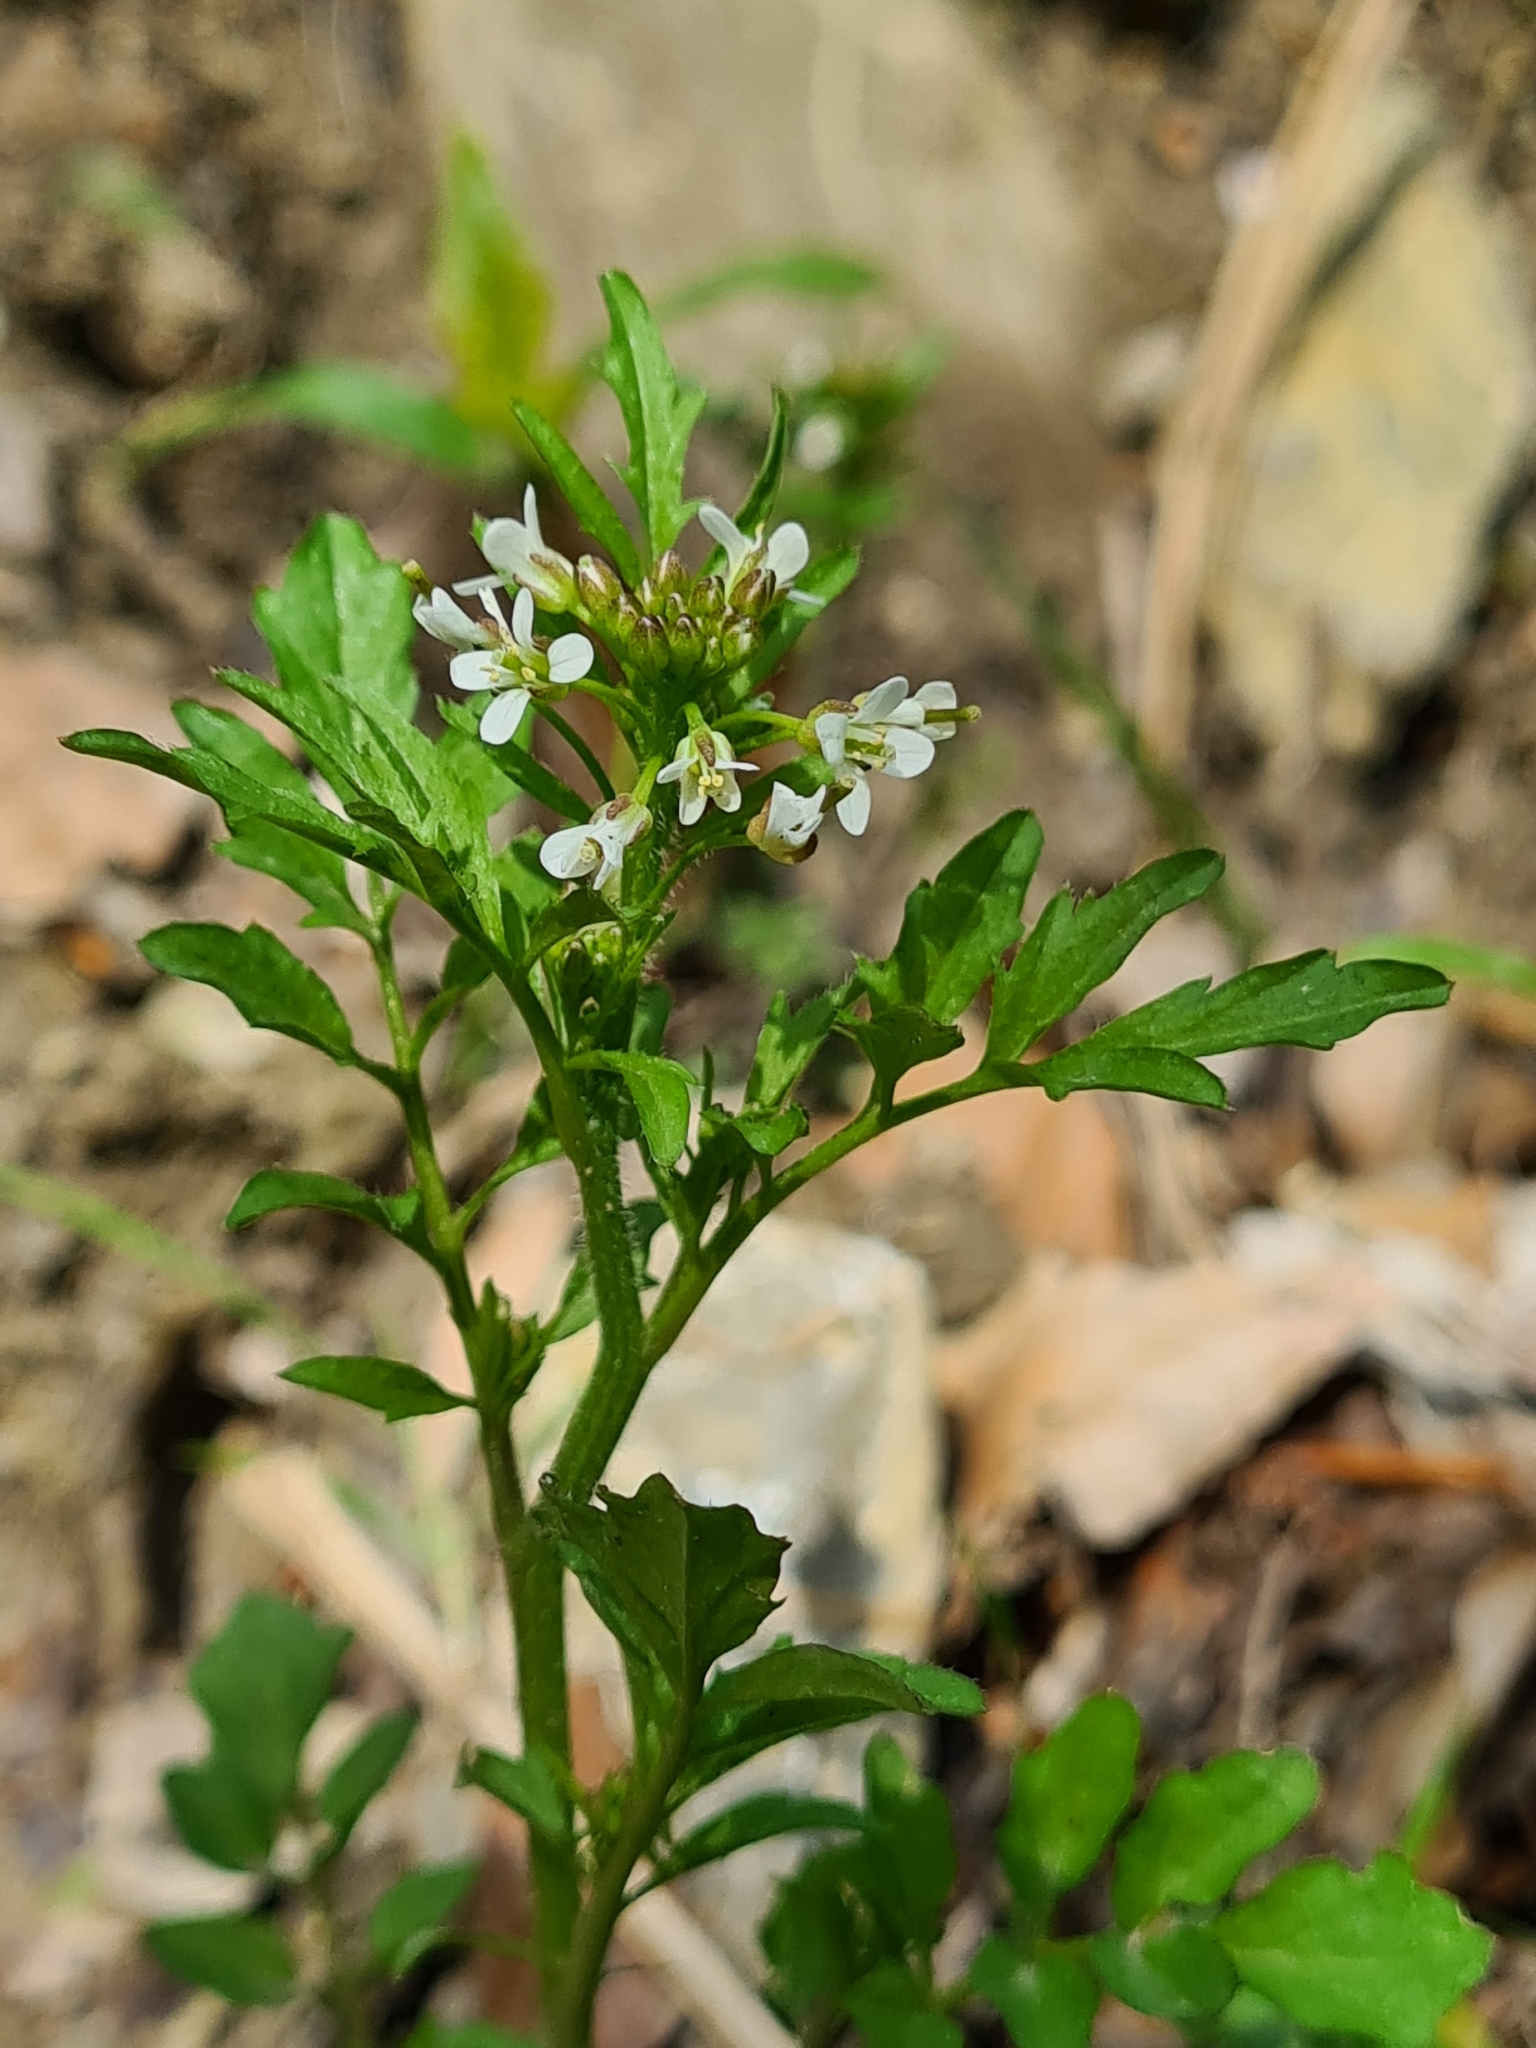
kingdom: Plantae
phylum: Tracheophyta
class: Magnoliopsida
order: Brassicales
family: Brassicaceae
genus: Cardamine
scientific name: Cardamine flexuosa
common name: Woodland bittercress
